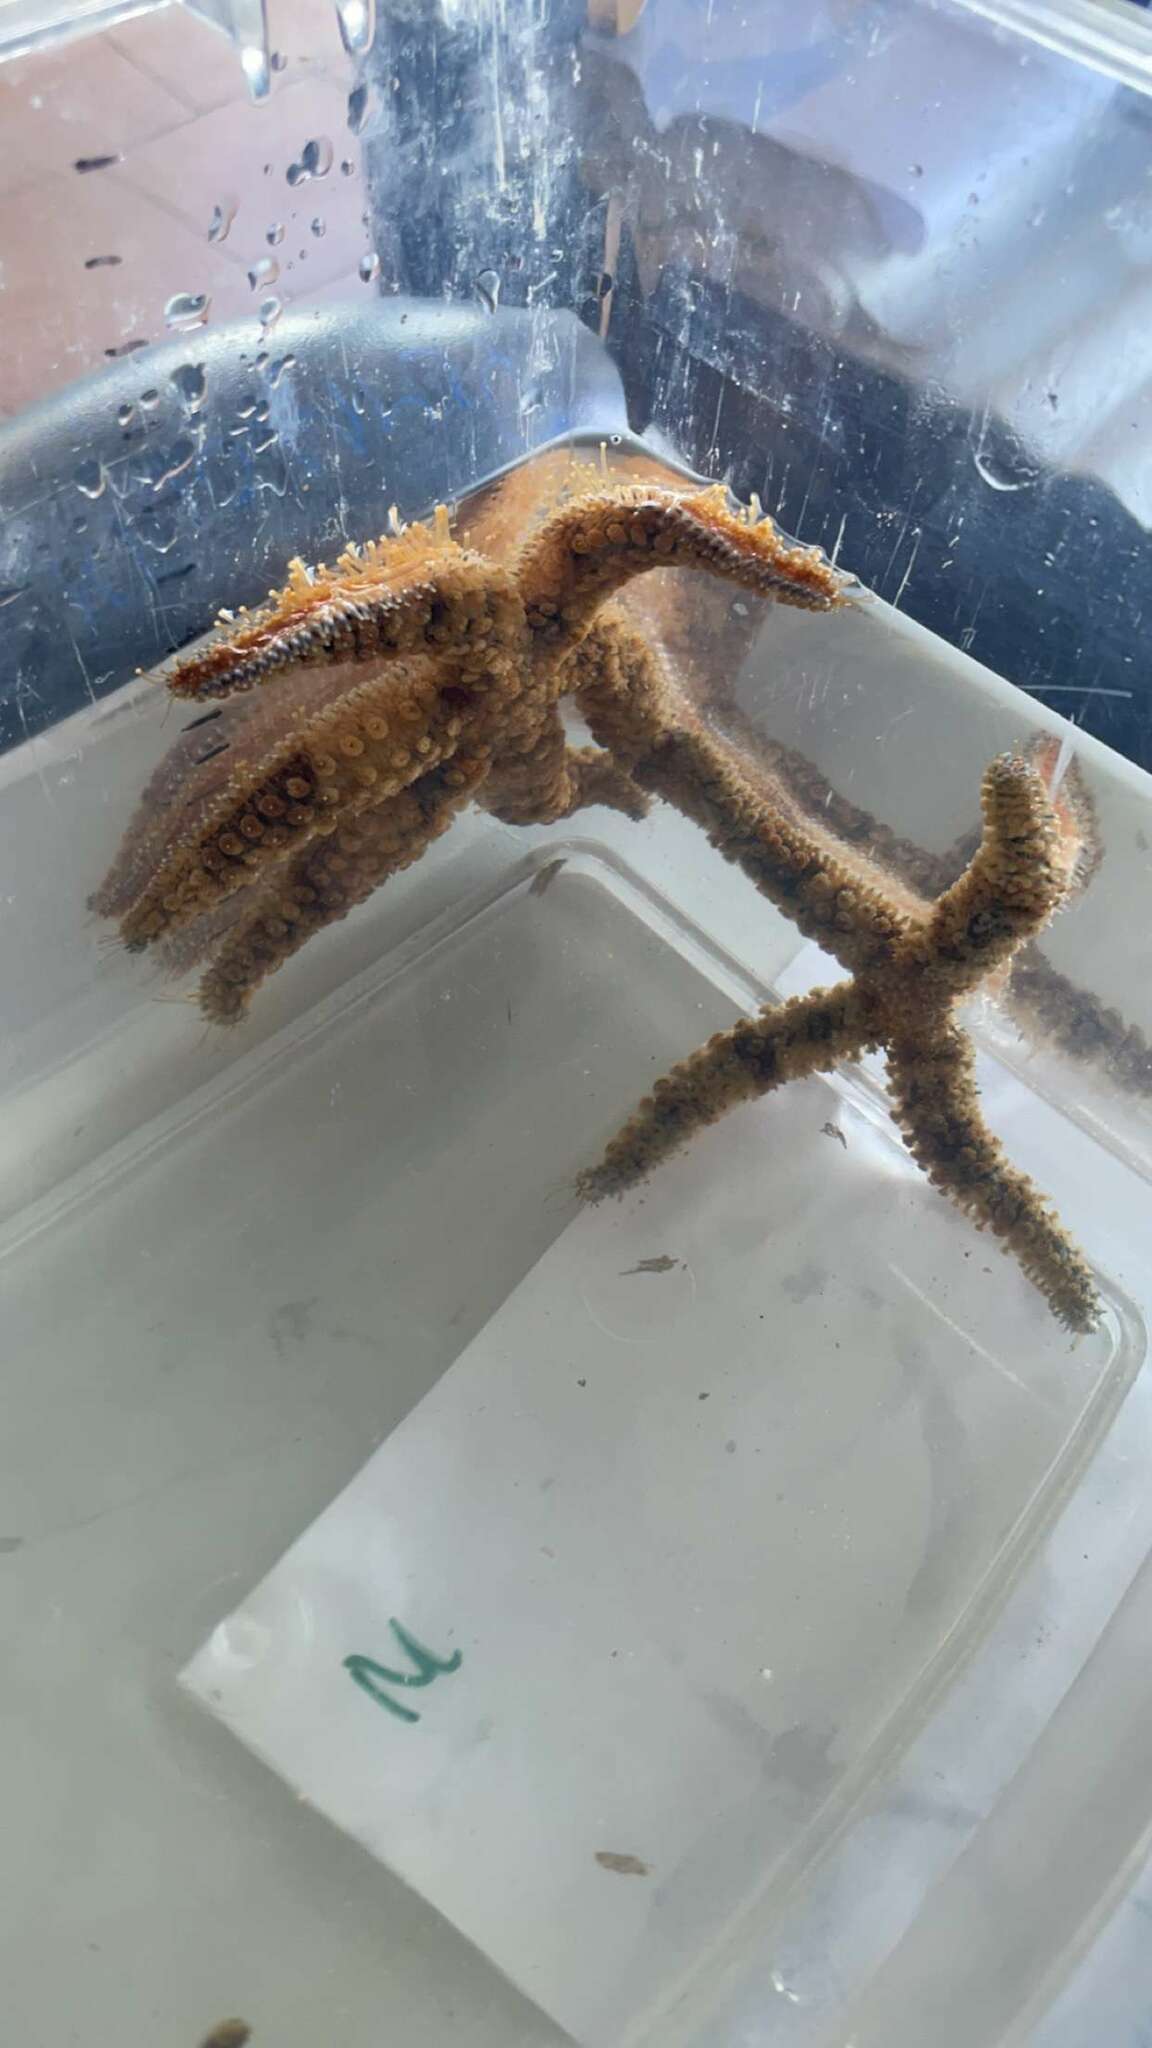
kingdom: Animalia
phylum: Echinodermata
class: Asteroidea
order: Forcipulatida
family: Asteriidae
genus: Marthasterias
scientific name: Marthasterias glacialis
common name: Spiny starfish
